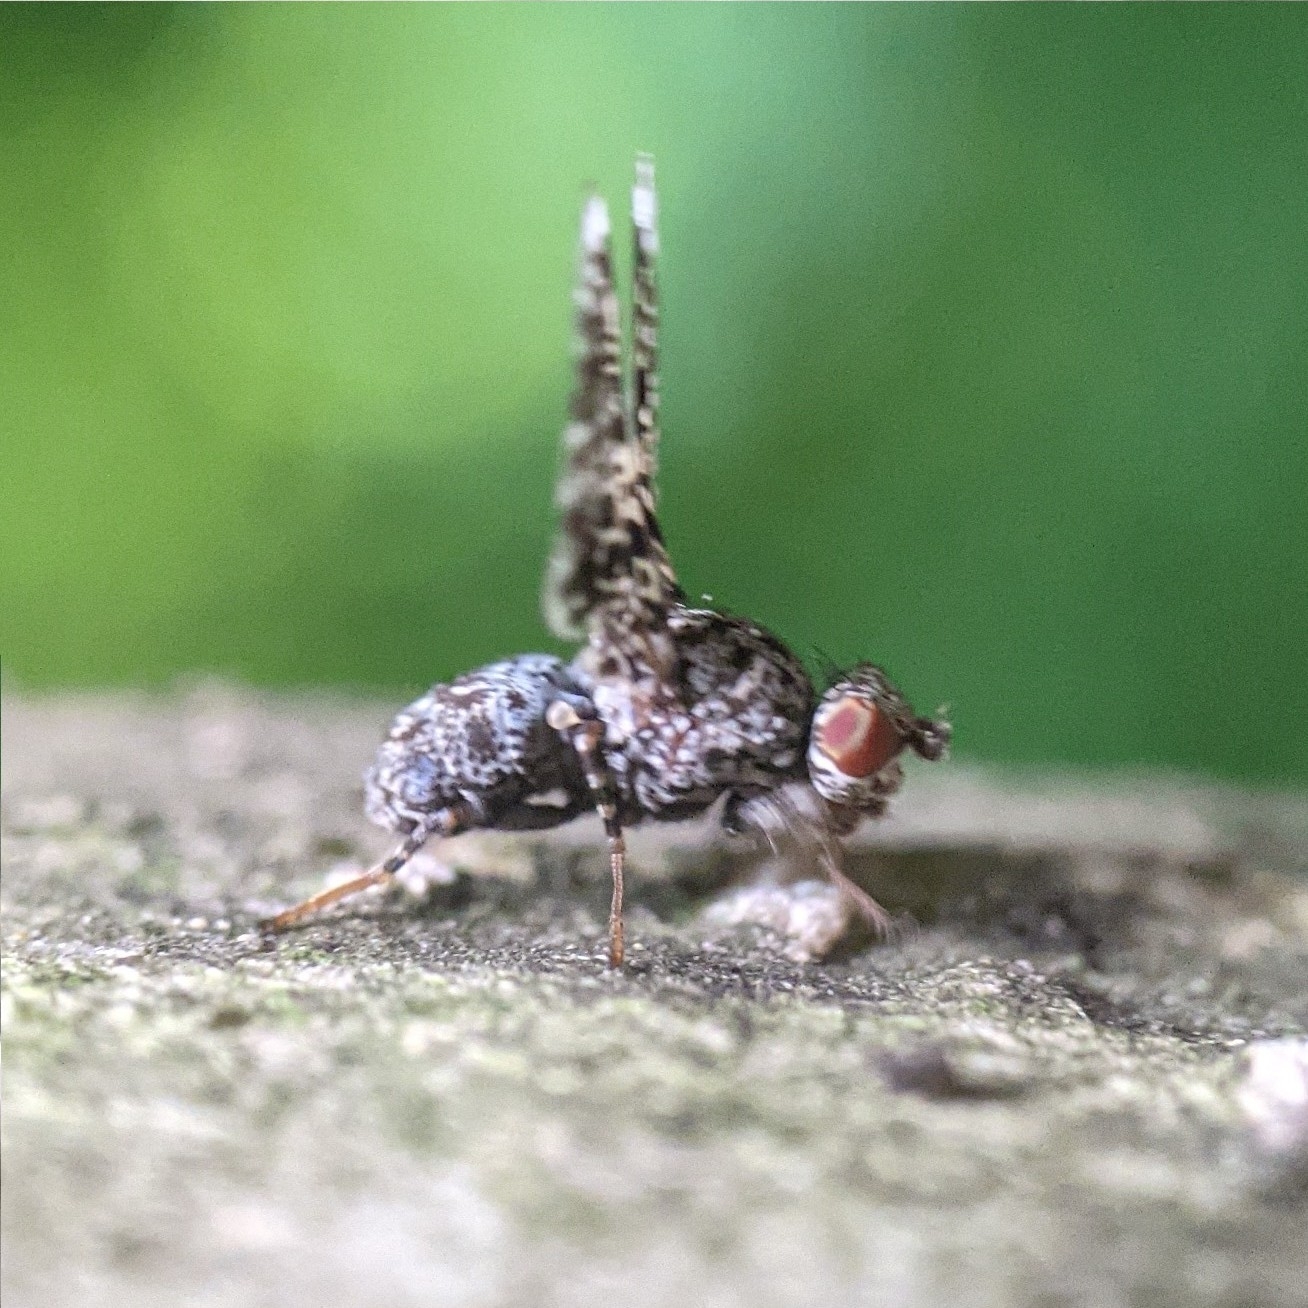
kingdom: Animalia
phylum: Arthropoda
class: Insecta
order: Diptera
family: Ulidiidae
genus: Callopistromyia
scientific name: Callopistromyia annulipes
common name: Peacock fly
